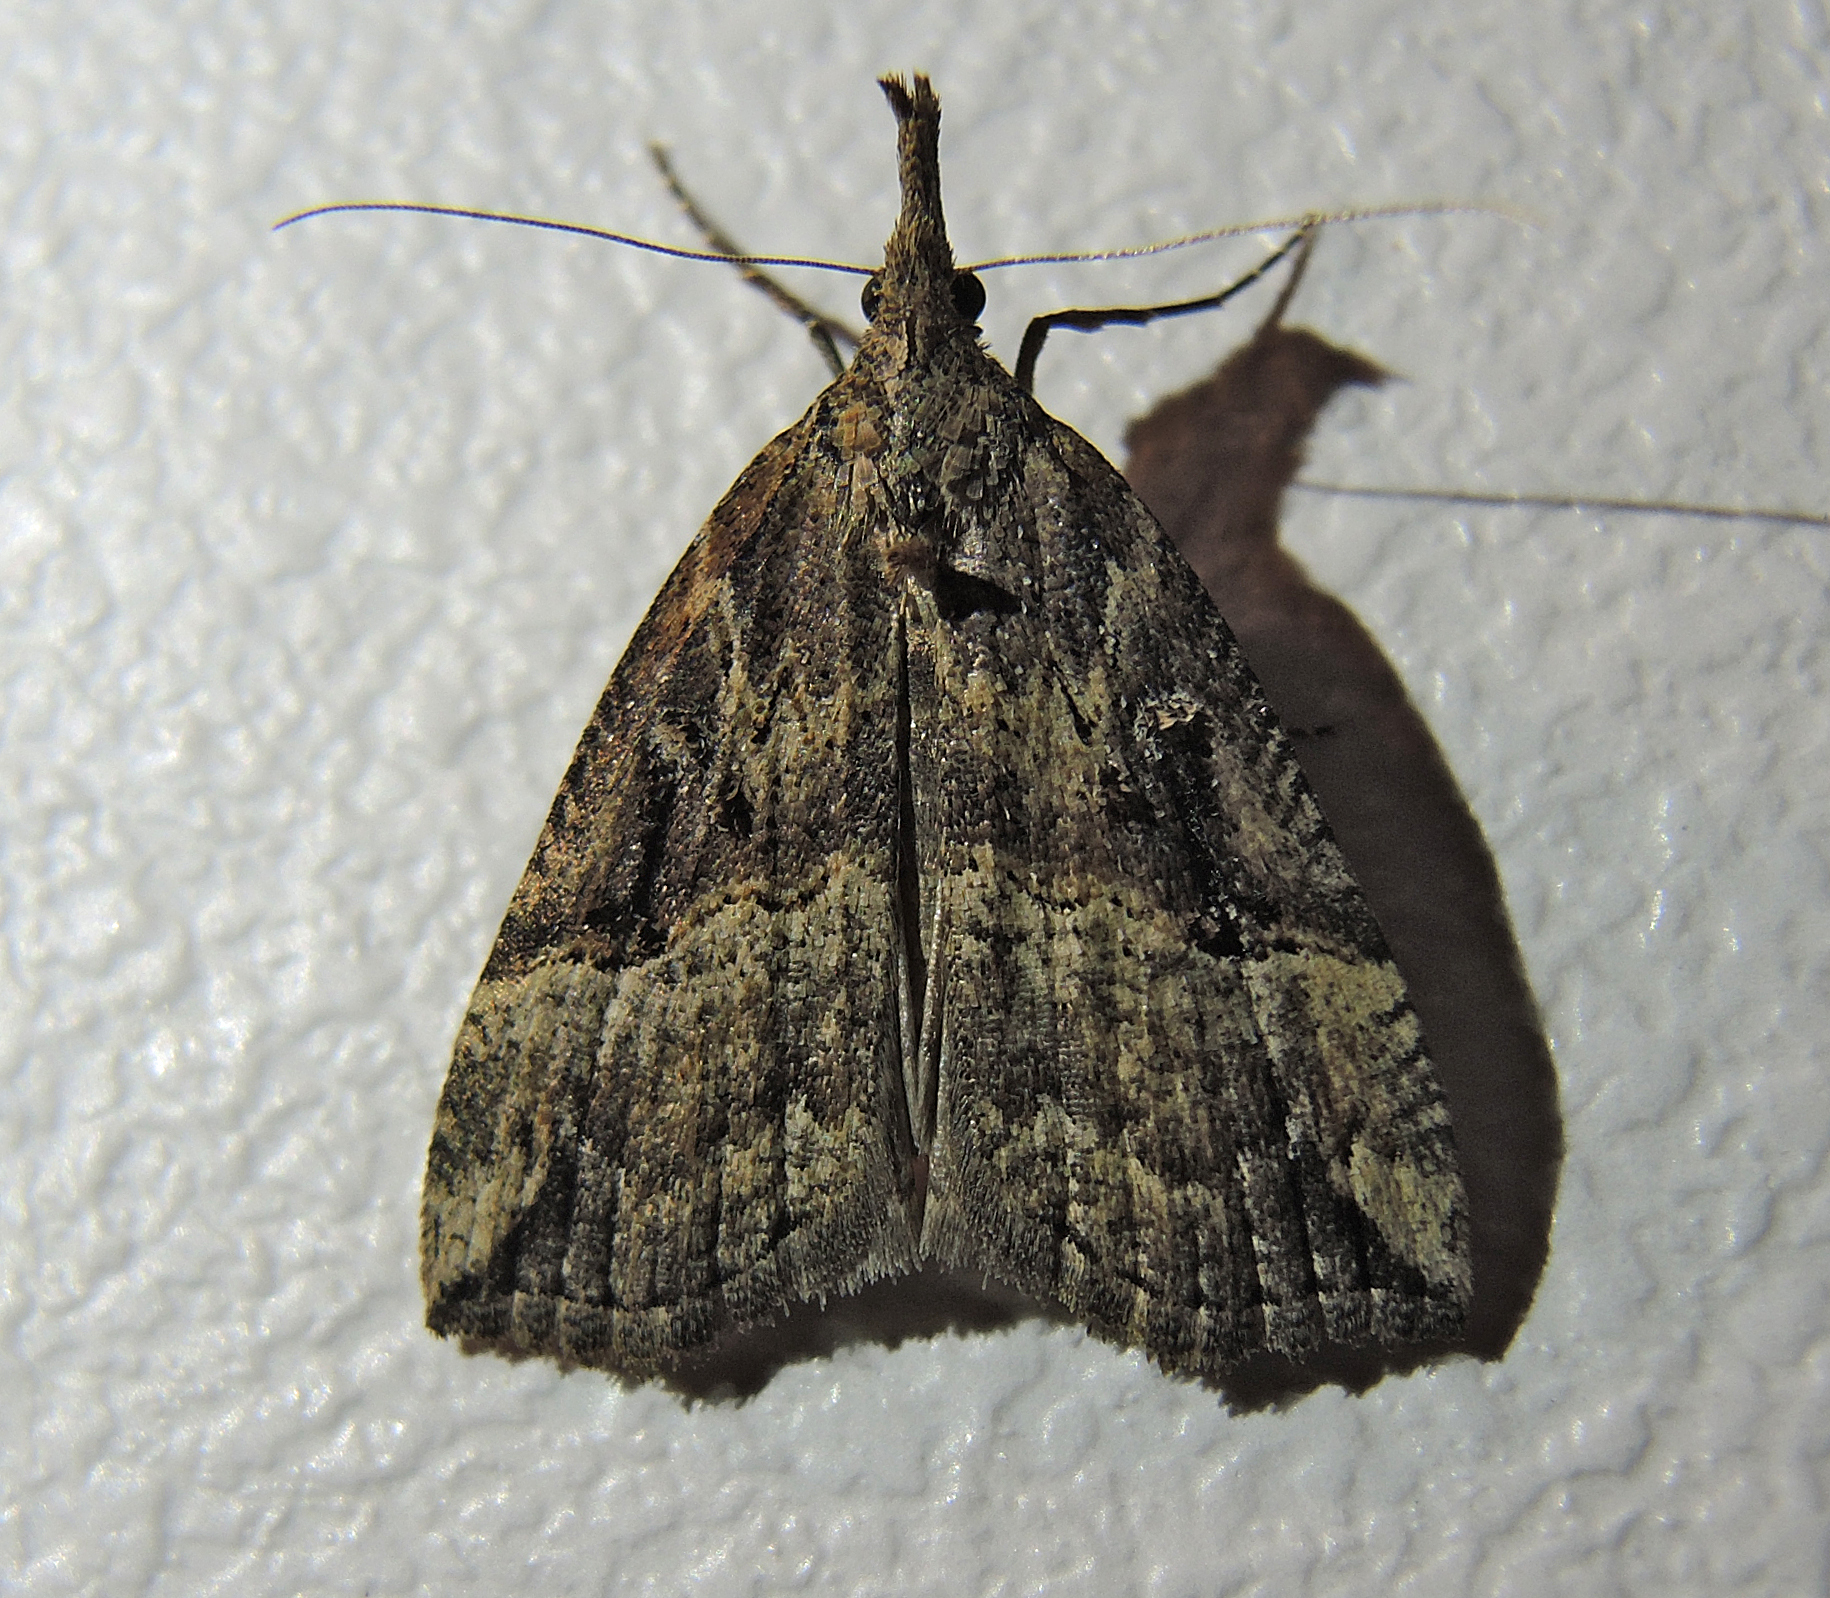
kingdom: Animalia
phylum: Arthropoda
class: Insecta
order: Lepidoptera
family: Erebidae
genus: Hypena
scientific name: Hypena rostralis
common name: Buttoned snout
